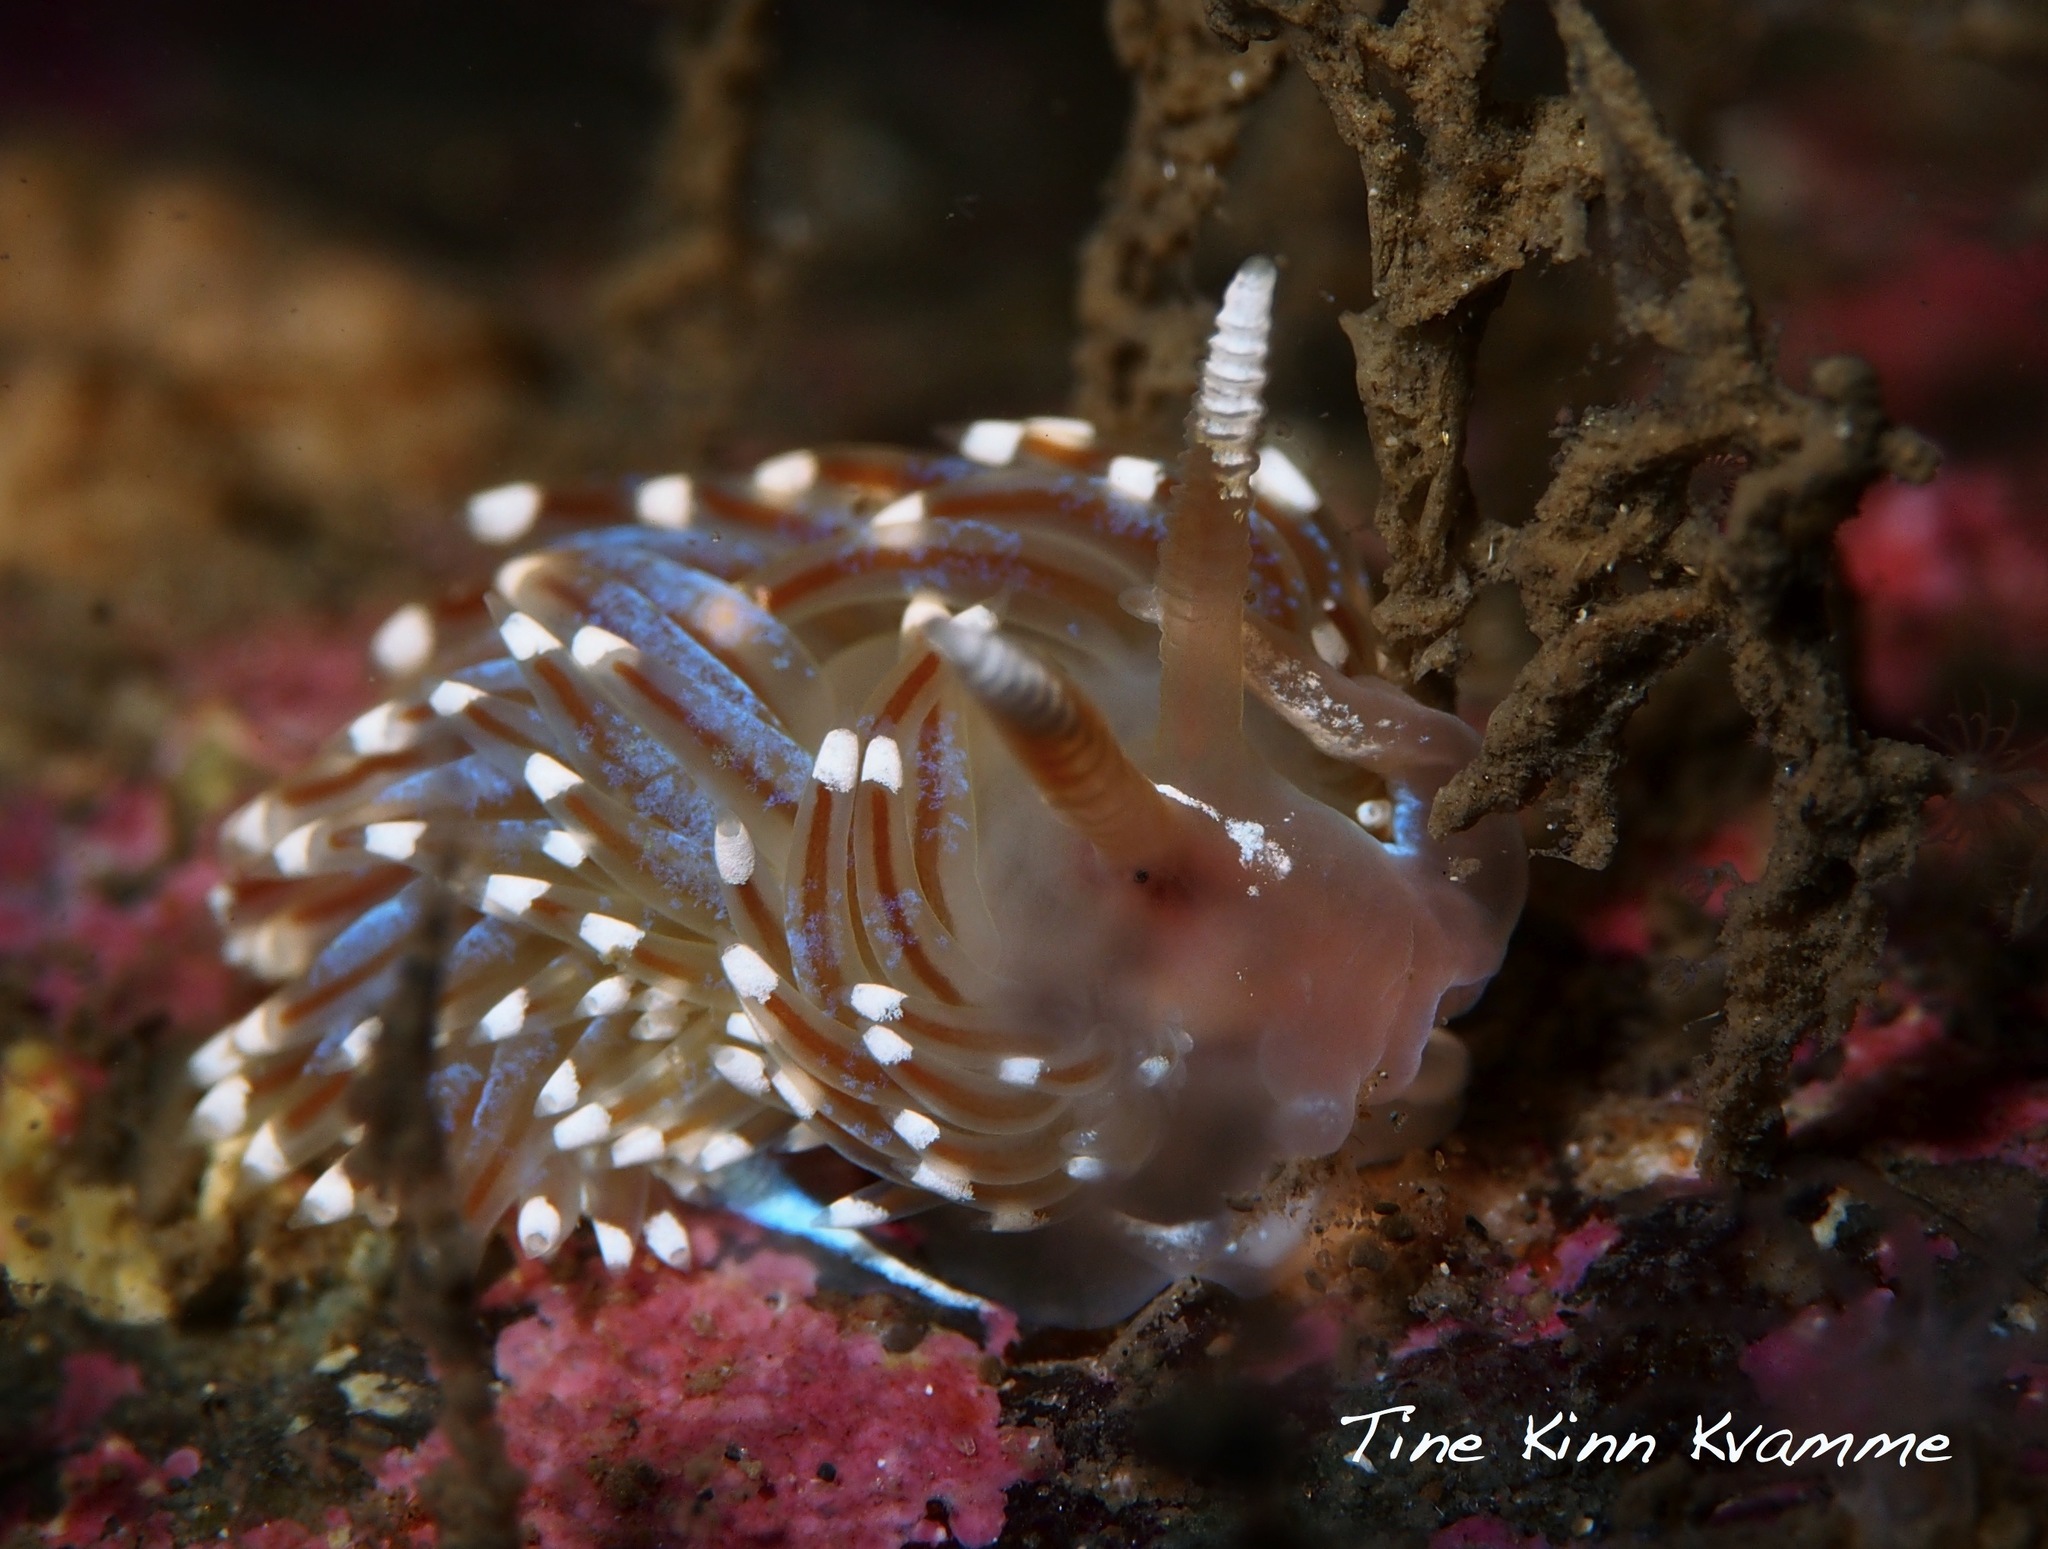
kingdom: Animalia
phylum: Mollusca
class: Gastropoda
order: Nudibranchia
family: Facelinidae
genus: Facelina
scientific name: Facelina auriculata
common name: Slender facelina
